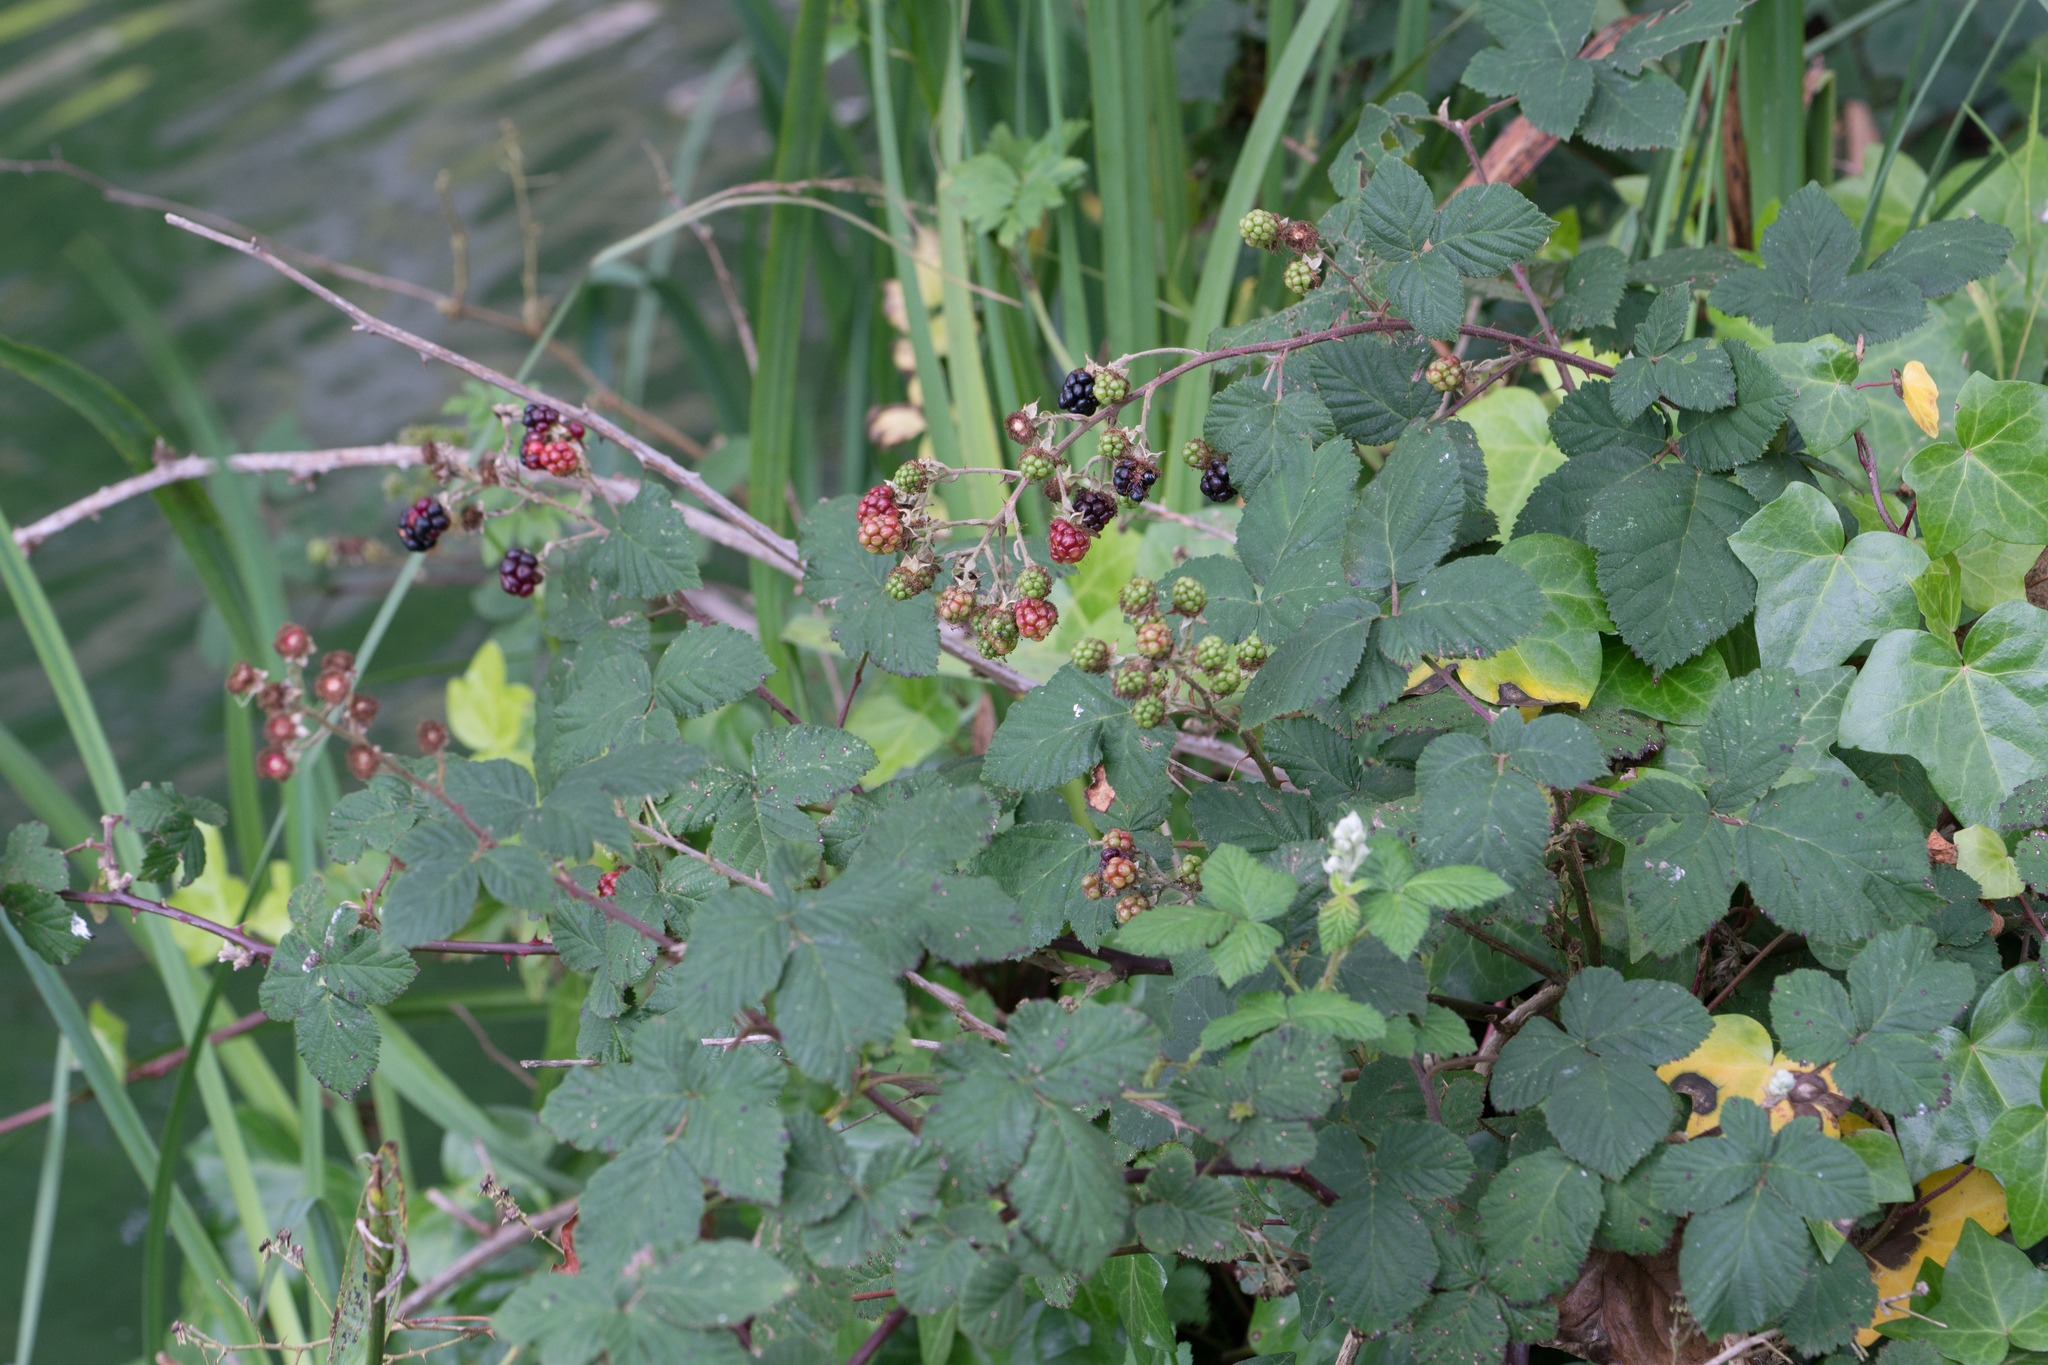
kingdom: Plantae
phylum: Tracheophyta
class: Magnoliopsida
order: Rosales
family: Rosaceae
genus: Rubus
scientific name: Rubus armeniacus
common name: Himalayan blackberry
